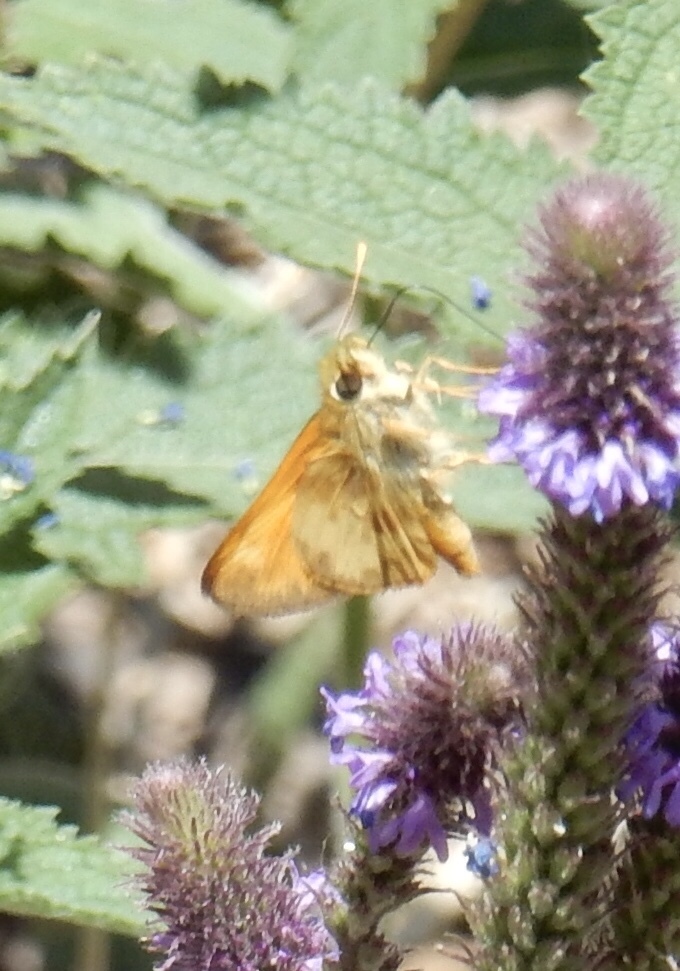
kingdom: Animalia
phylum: Arthropoda
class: Insecta
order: Lepidoptera
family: Hesperiidae
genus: Lon
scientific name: Lon taxiles
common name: Taxiles skipper
